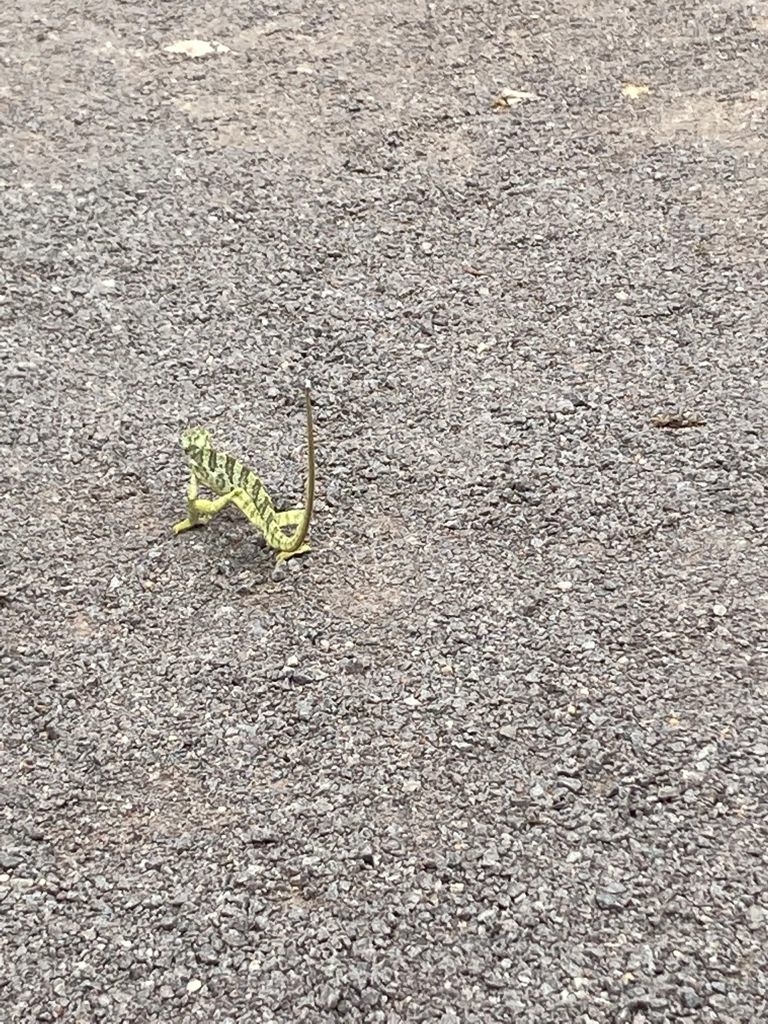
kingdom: Animalia
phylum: Chordata
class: Squamata
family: Chamaeleonidae
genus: Chamaeleo
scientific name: Chamaeleo zeylanicus
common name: Indian chameleon
